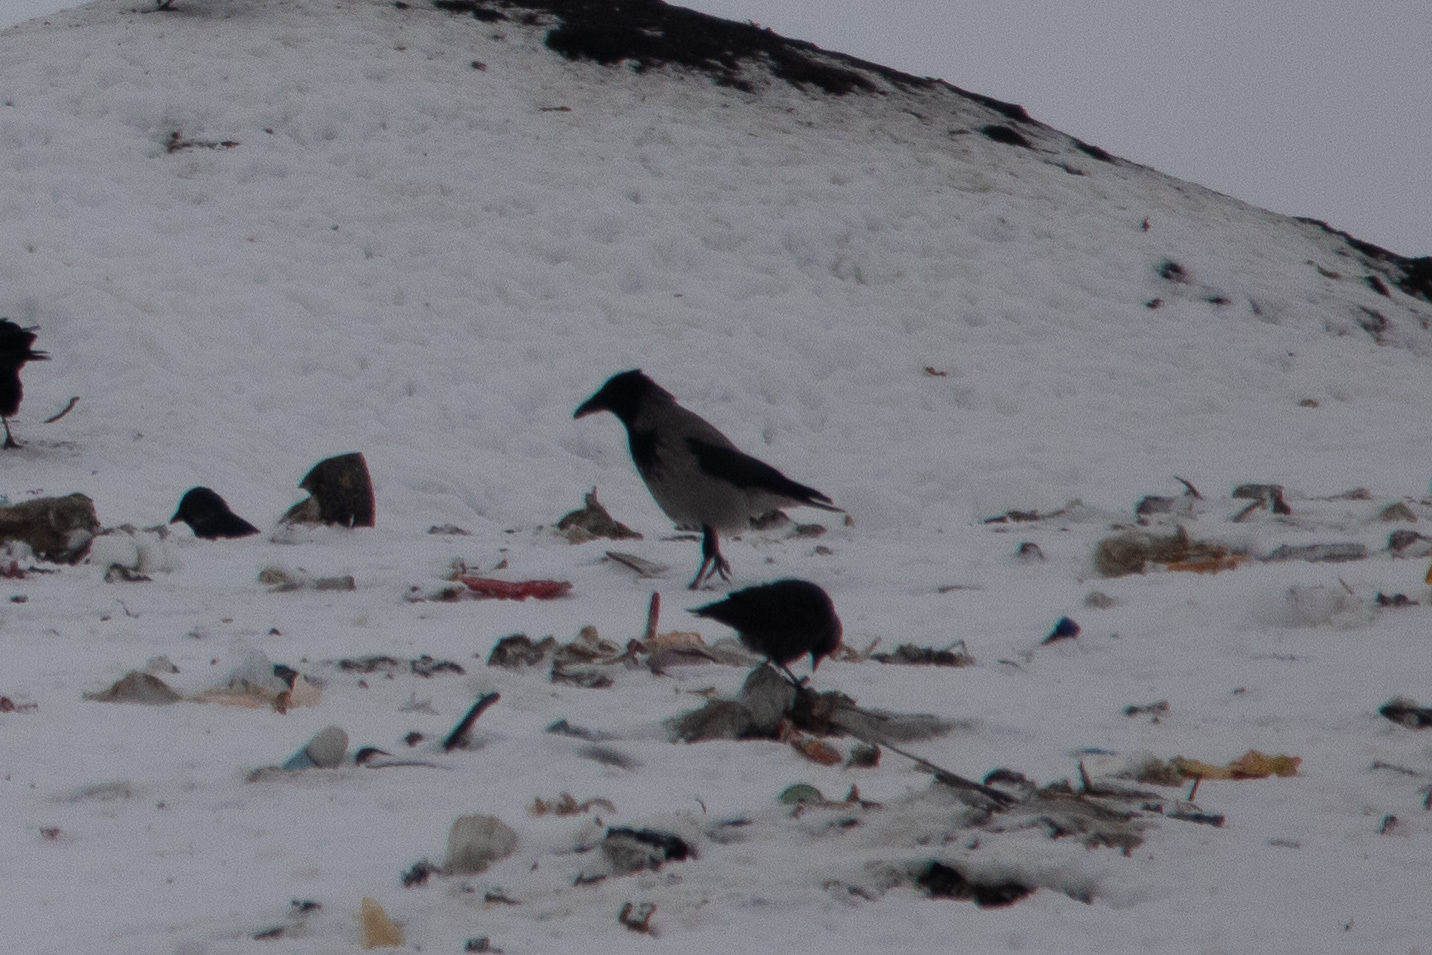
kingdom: Animalia
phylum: Chordata
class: Aves
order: Passeriformes
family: Corvidae
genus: Corvus
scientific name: Corvus cornix
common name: Hooded crow
